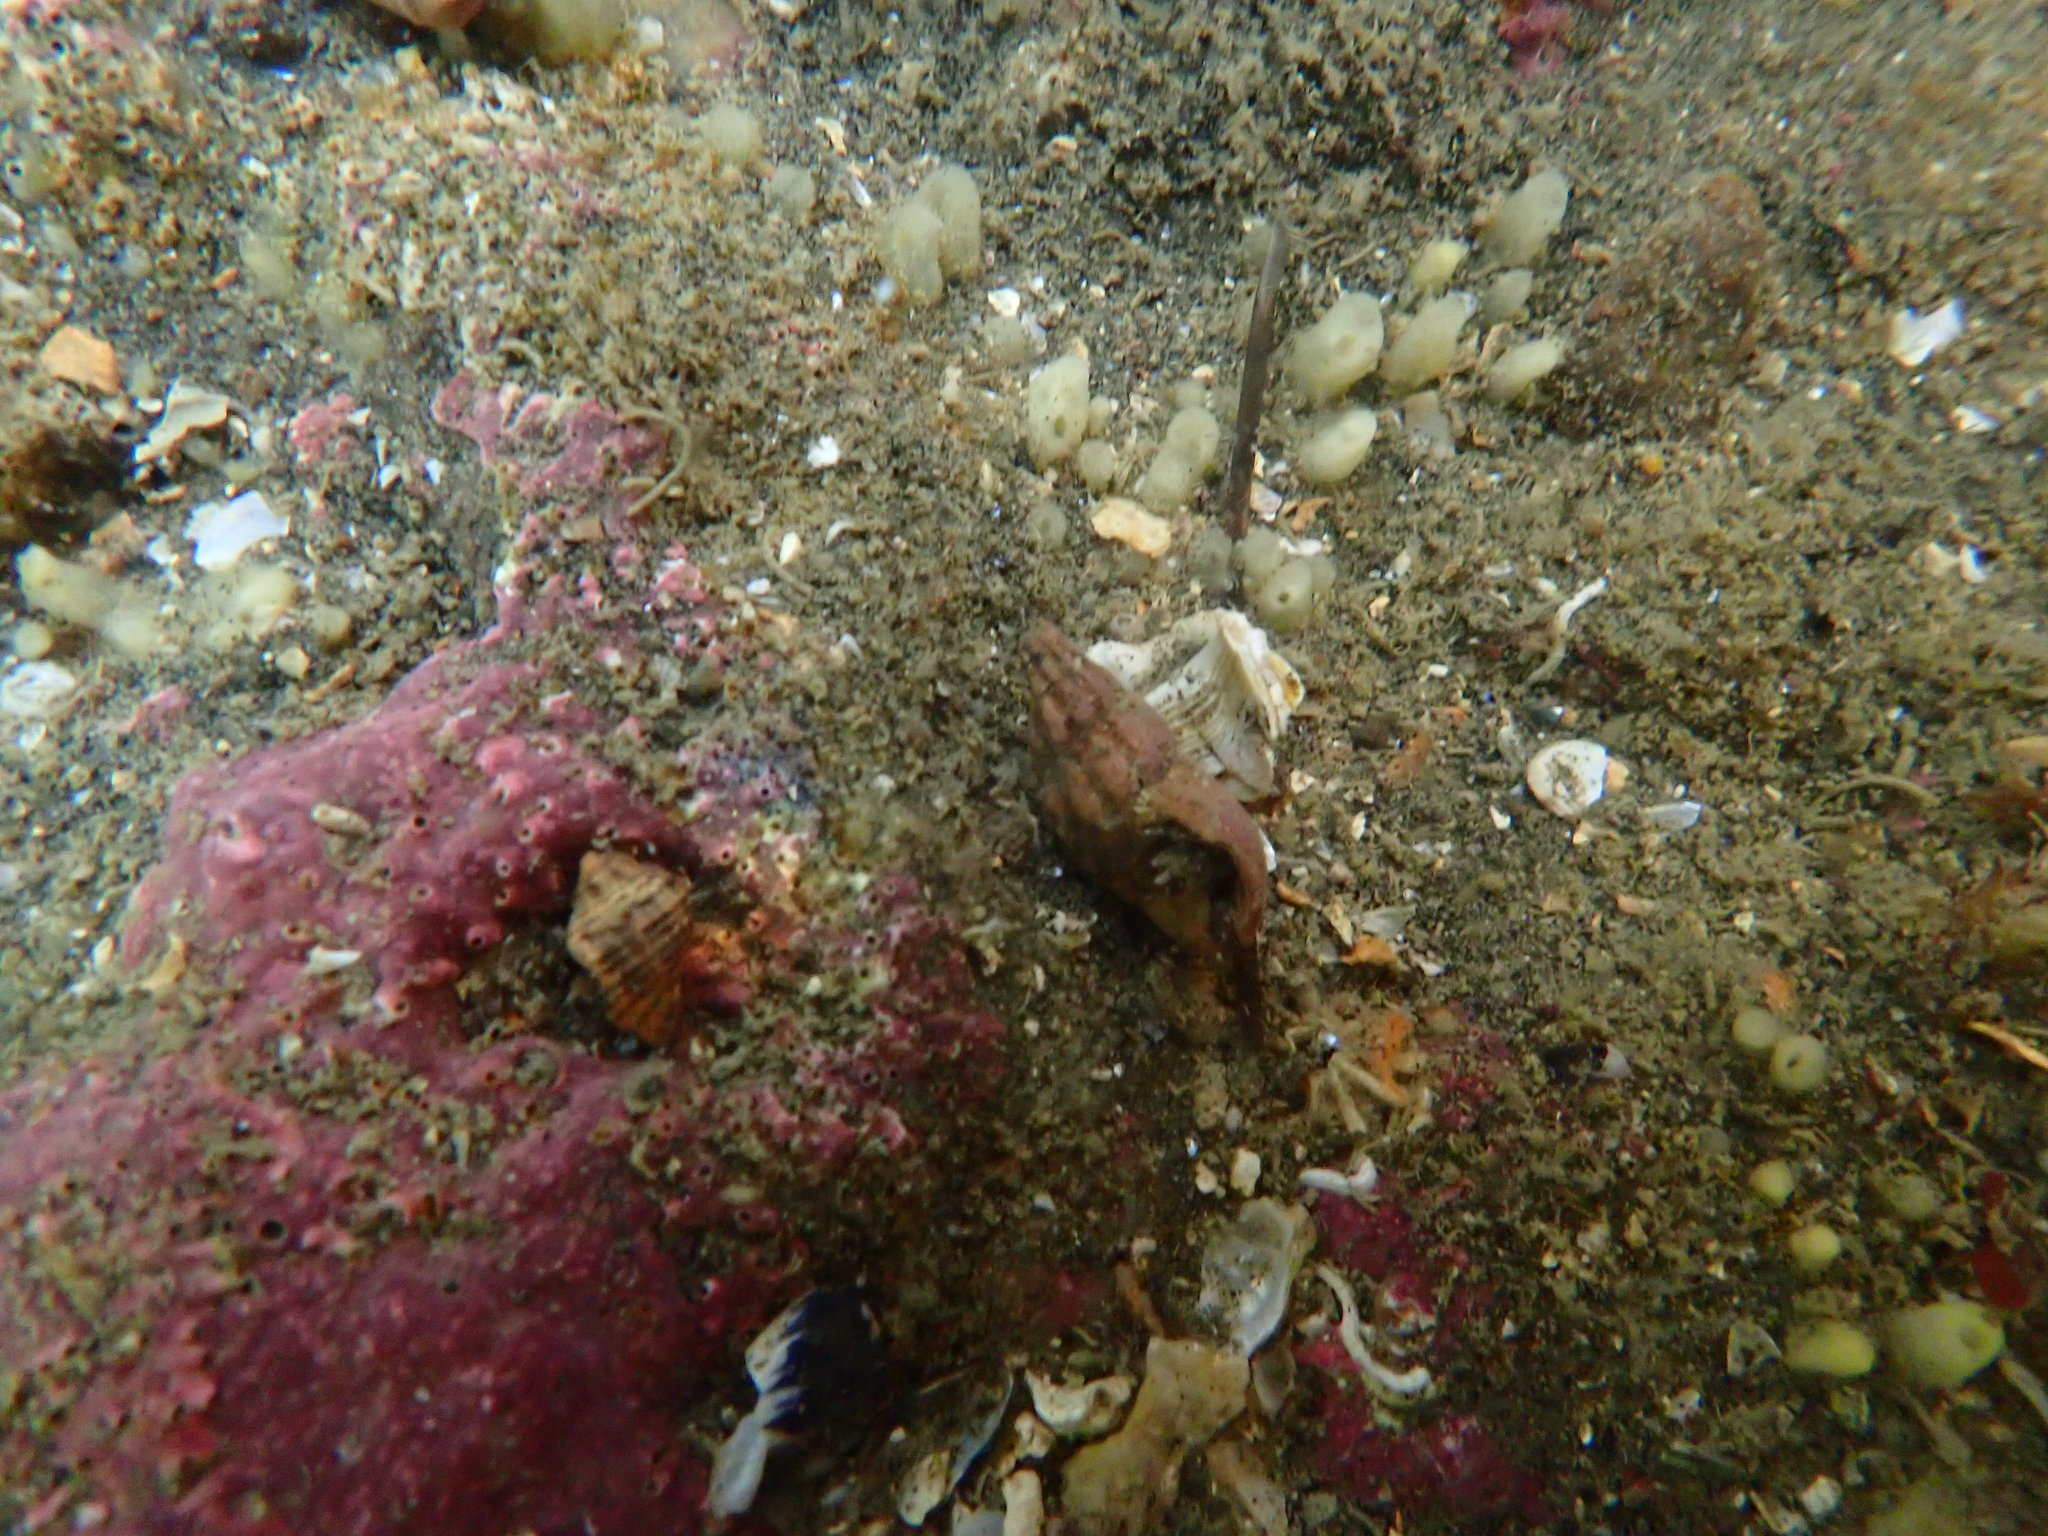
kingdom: Animalia
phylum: Mollusca
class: Gastropoda
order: Neogastropoda
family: Cominellidae
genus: Cominella
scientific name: Cominella accuminata
